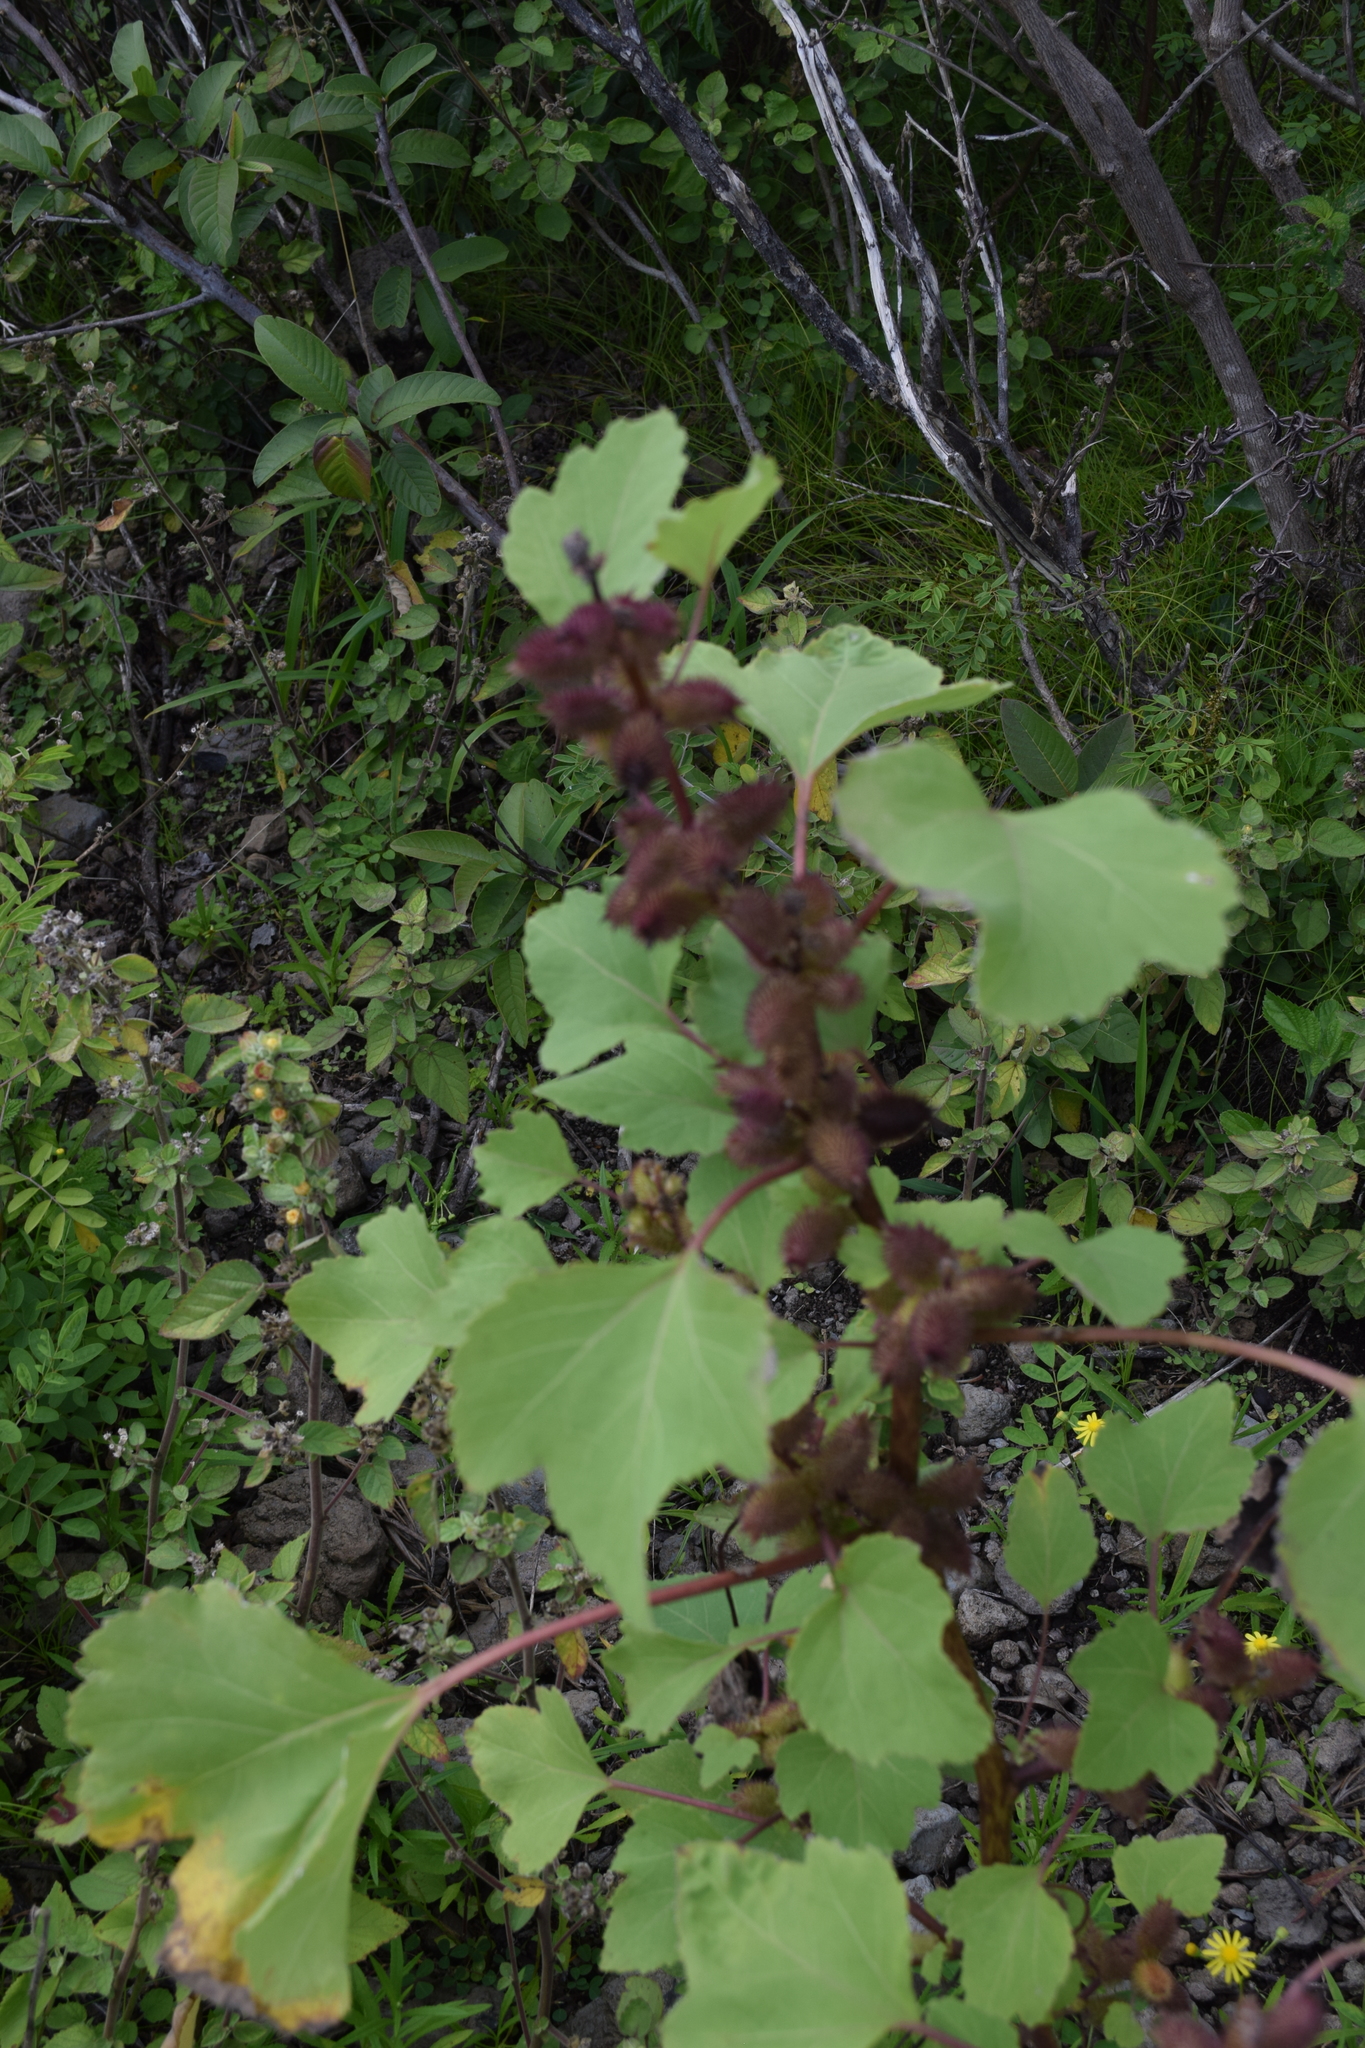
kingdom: Plantae
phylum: Tracheophyta
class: Magnoliopsida
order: Asterales
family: Asteraceae
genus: Xanthium
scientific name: Xanthium strumarium
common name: Rough cocklebur
